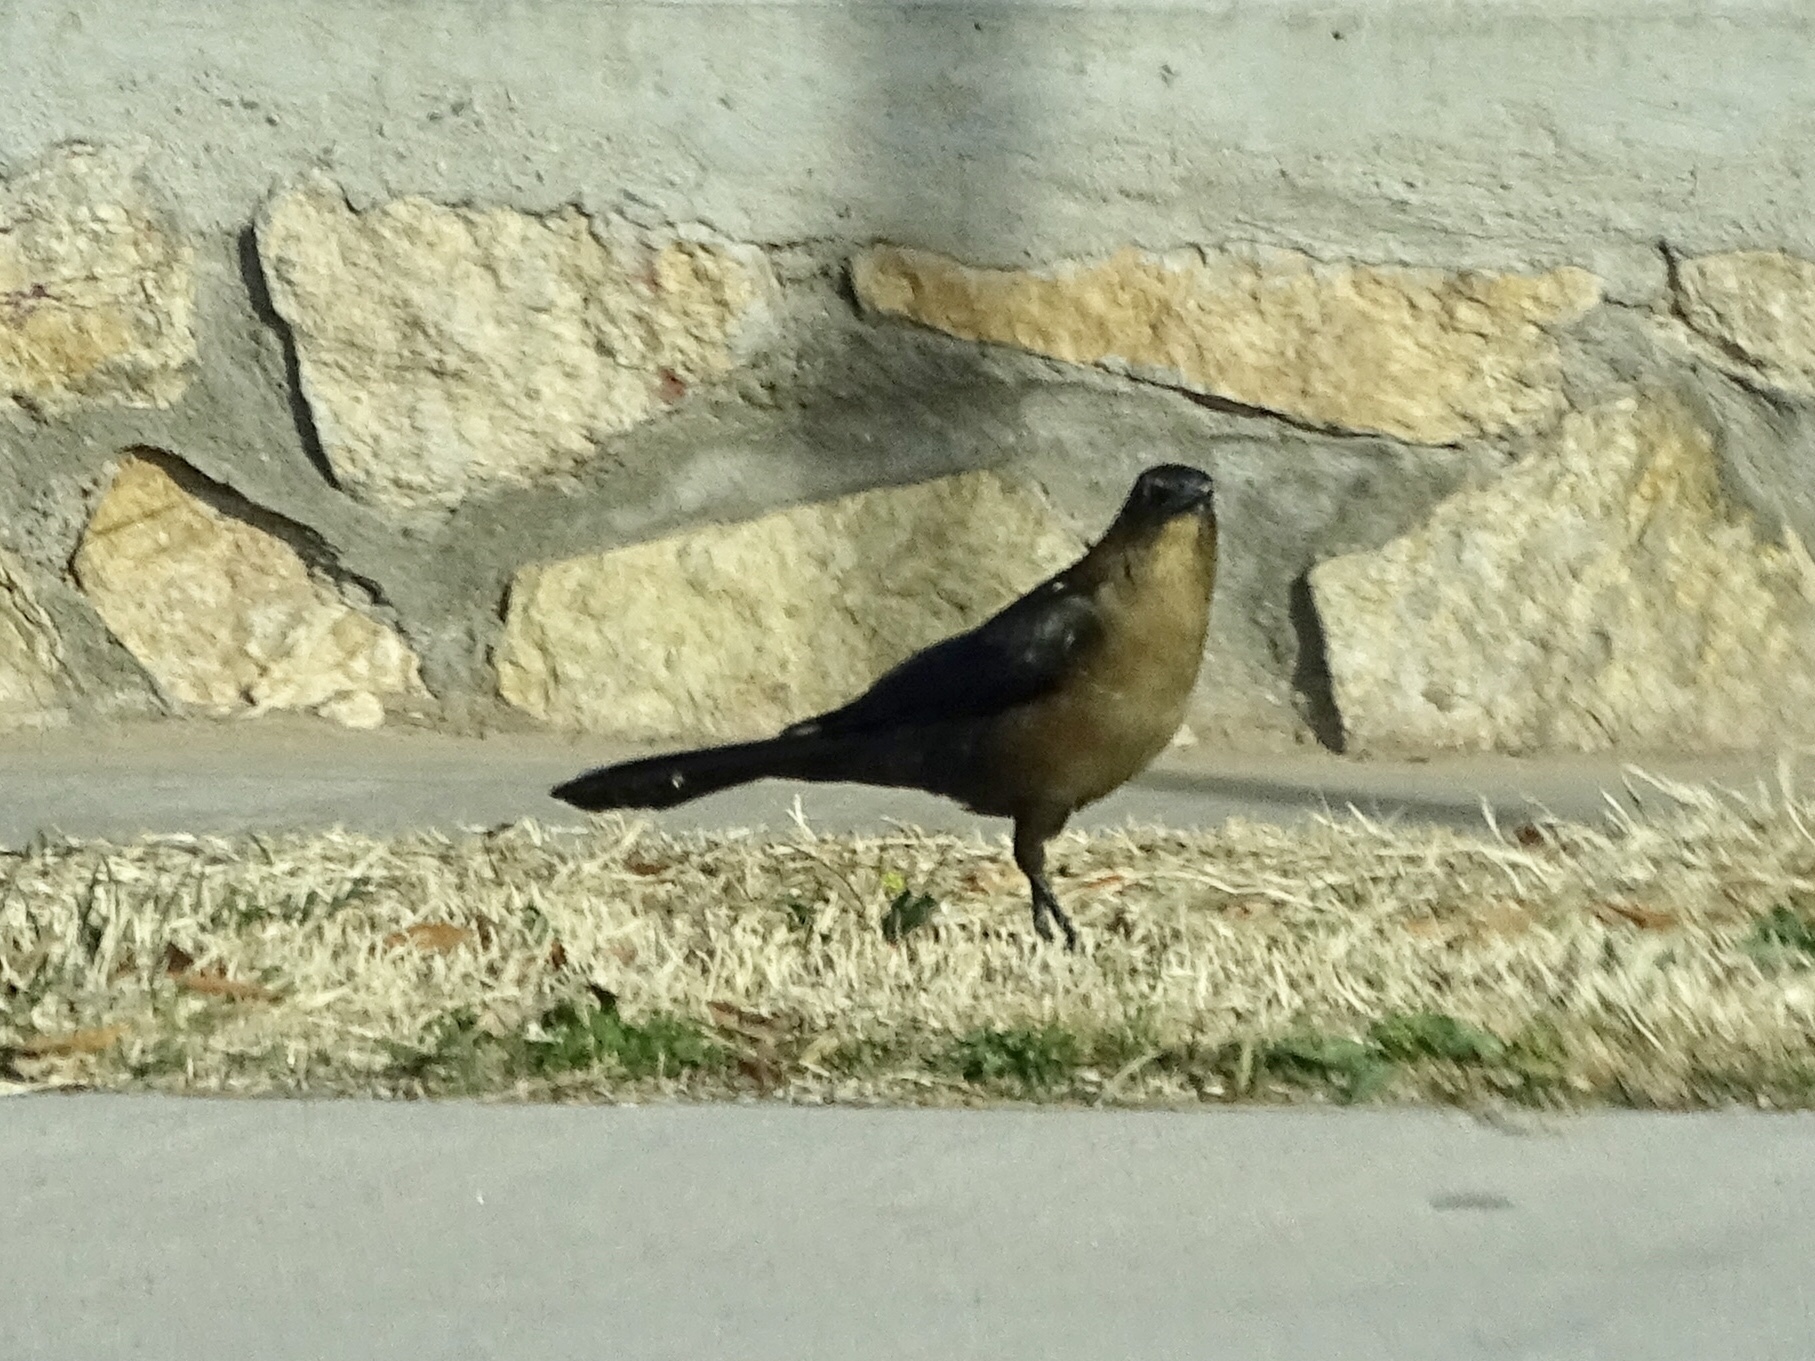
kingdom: Animalia
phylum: Chordata
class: Aves
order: Passeriformes
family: Icteridae
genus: Quiscalus
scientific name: Quiscalus mexicanus
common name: Great-tailed grackle
